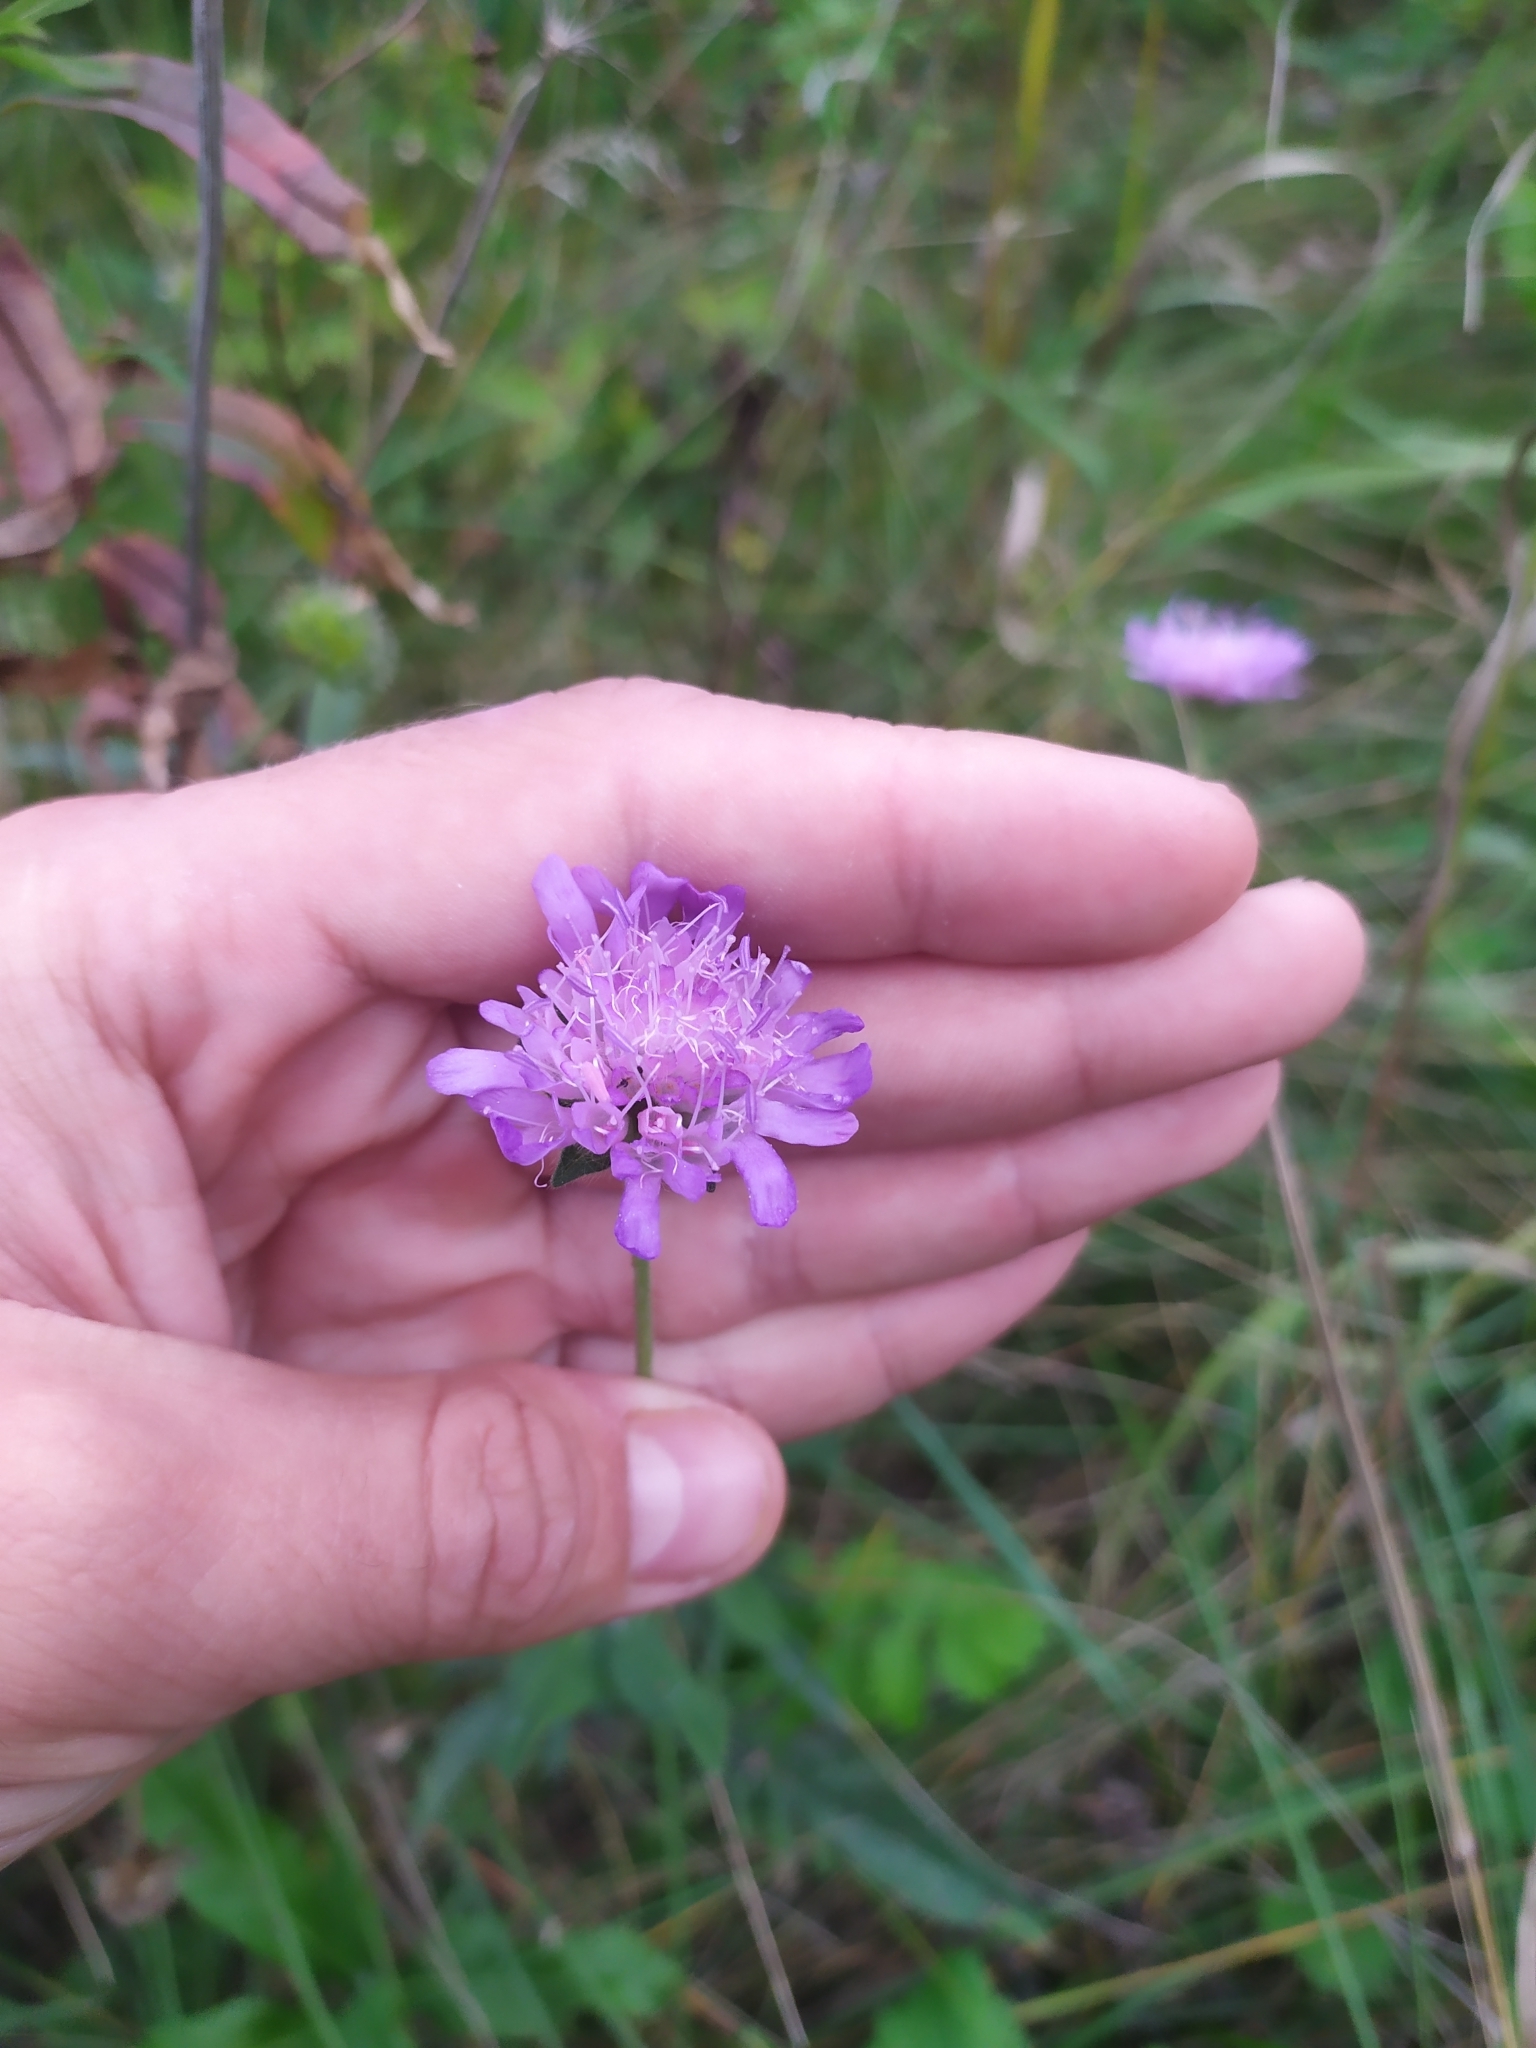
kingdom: Plantae
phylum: Tracheophyta
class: Magnoliopsida
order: Dipsacales
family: Caprifoliaceae
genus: Knautia
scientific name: Knautia arvensis
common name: Field scabiosa
